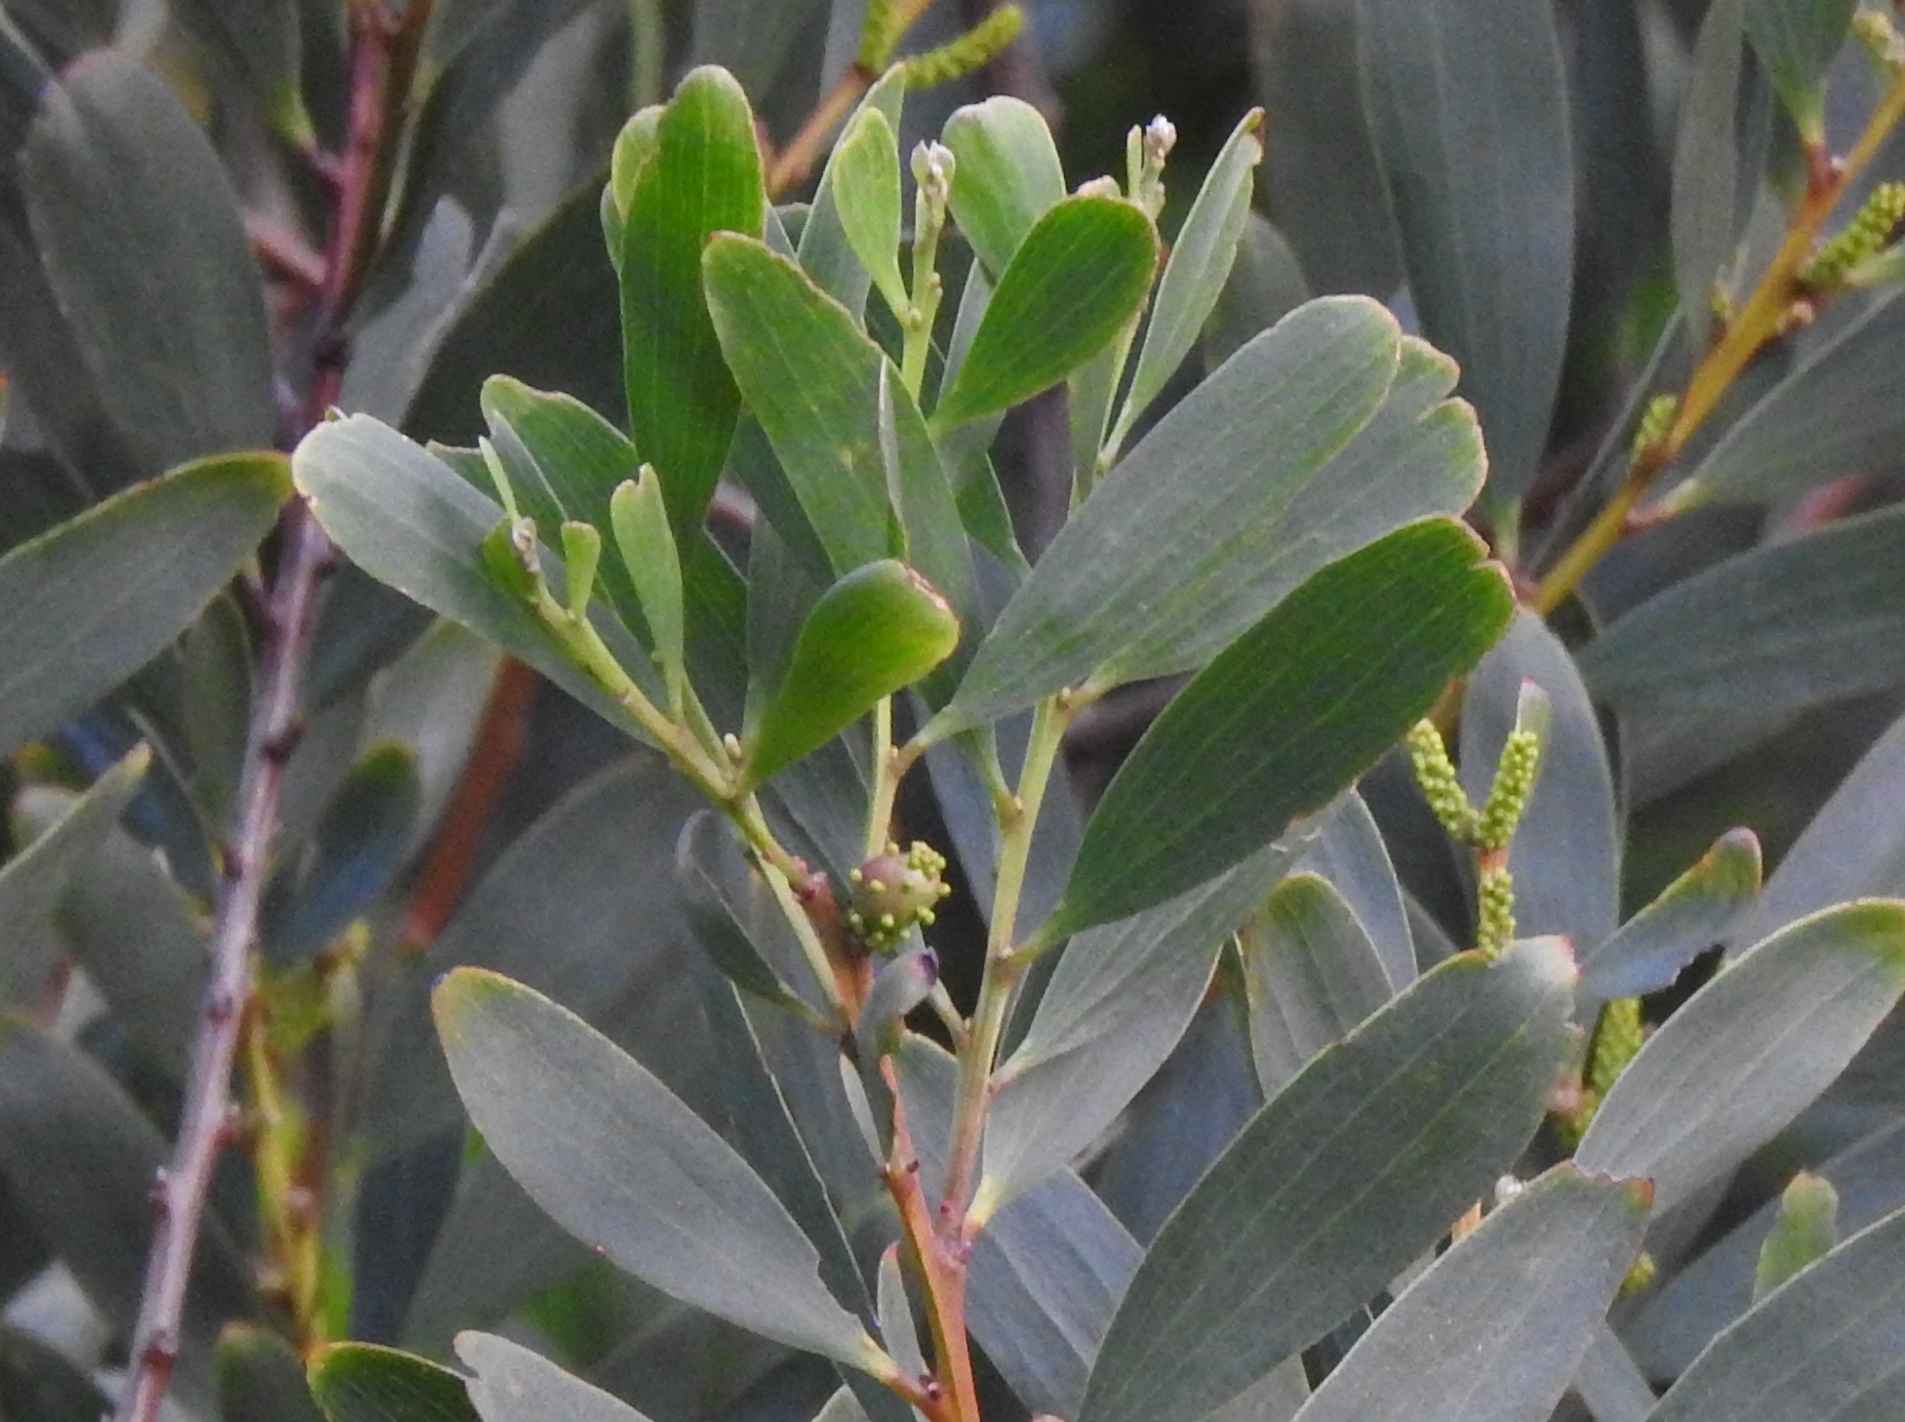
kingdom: Animalia
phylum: Arthropoda
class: Insecta
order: Hymenoptera
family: Pteromalidae
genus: Trichilogaster
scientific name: Trichilogaster acaciaelongifoliae
